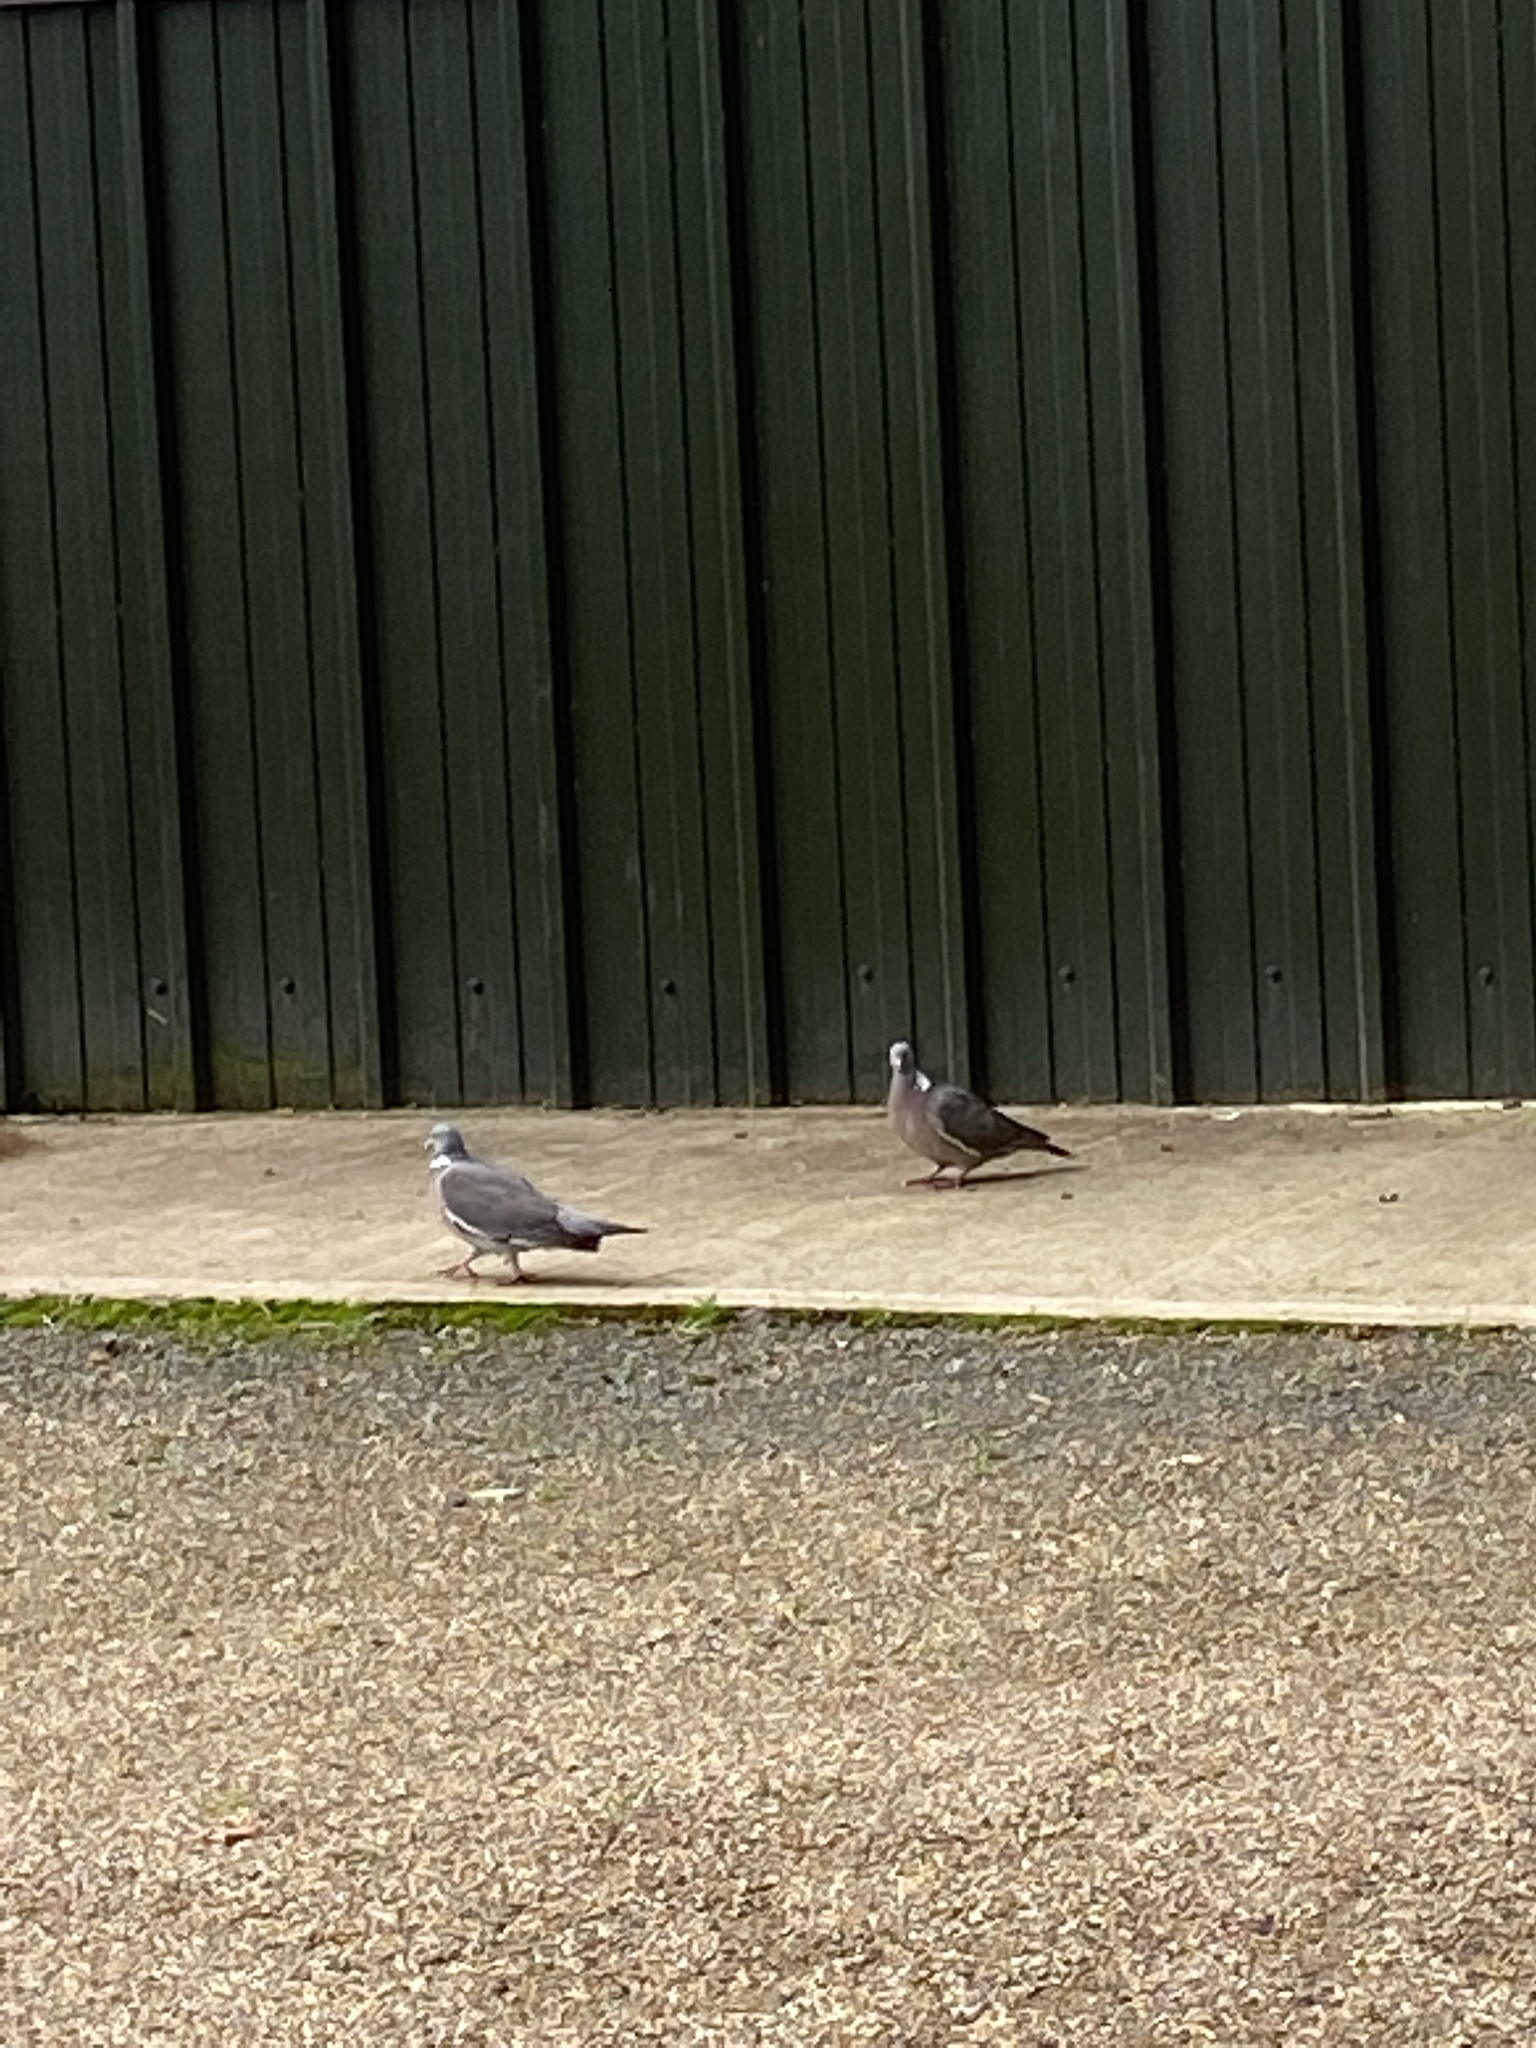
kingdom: Animalia
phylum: Chordata
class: Aves
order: Columbiformes
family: Columbidae
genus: Columba
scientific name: Columba palumbus
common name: Common wood pigeon
